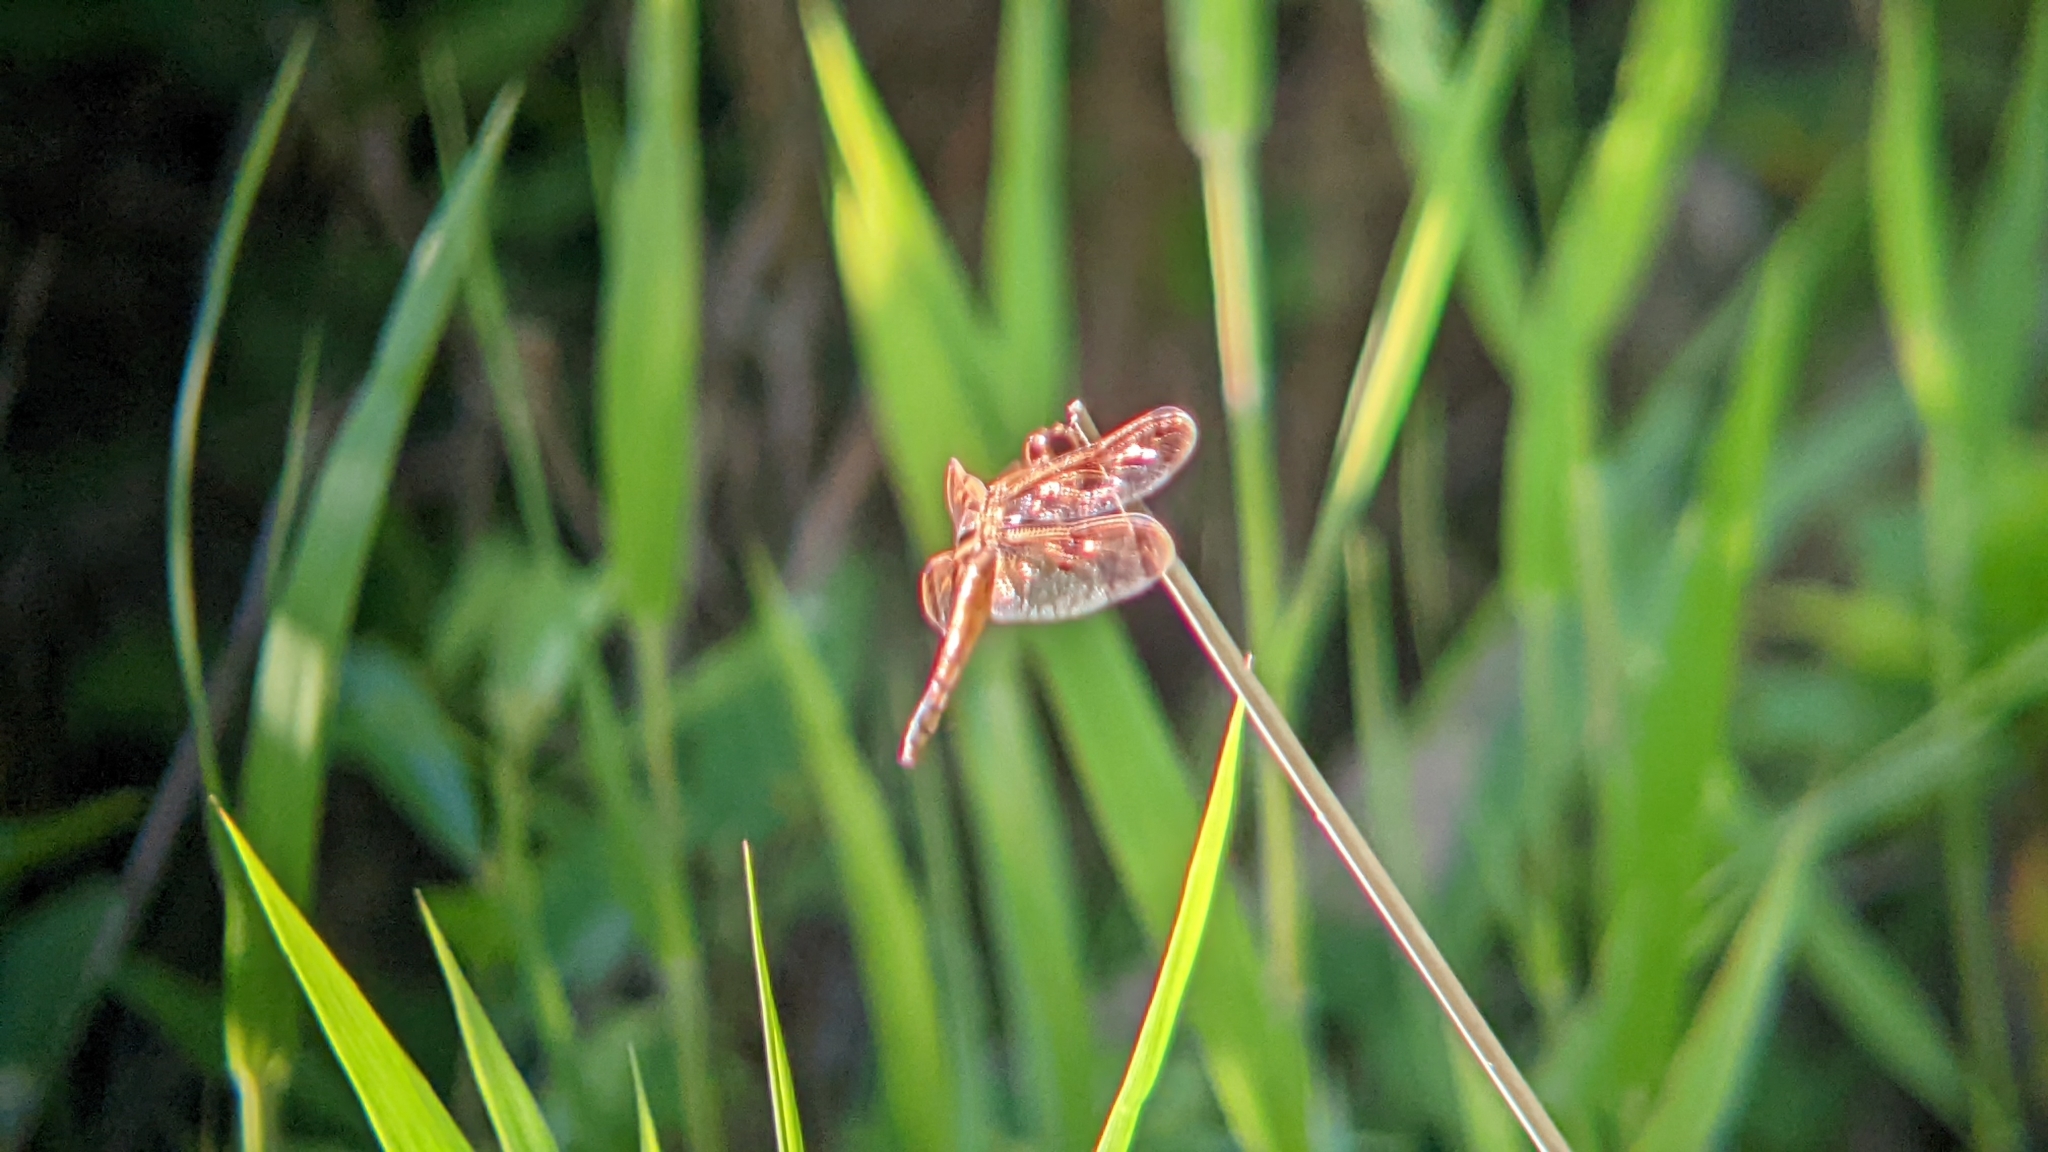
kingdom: Animalia
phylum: Arthropoda
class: Insecta
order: Odonata
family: Libellulidae
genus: Libellula
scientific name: Libellula semifasciata
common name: Painted skimmer
